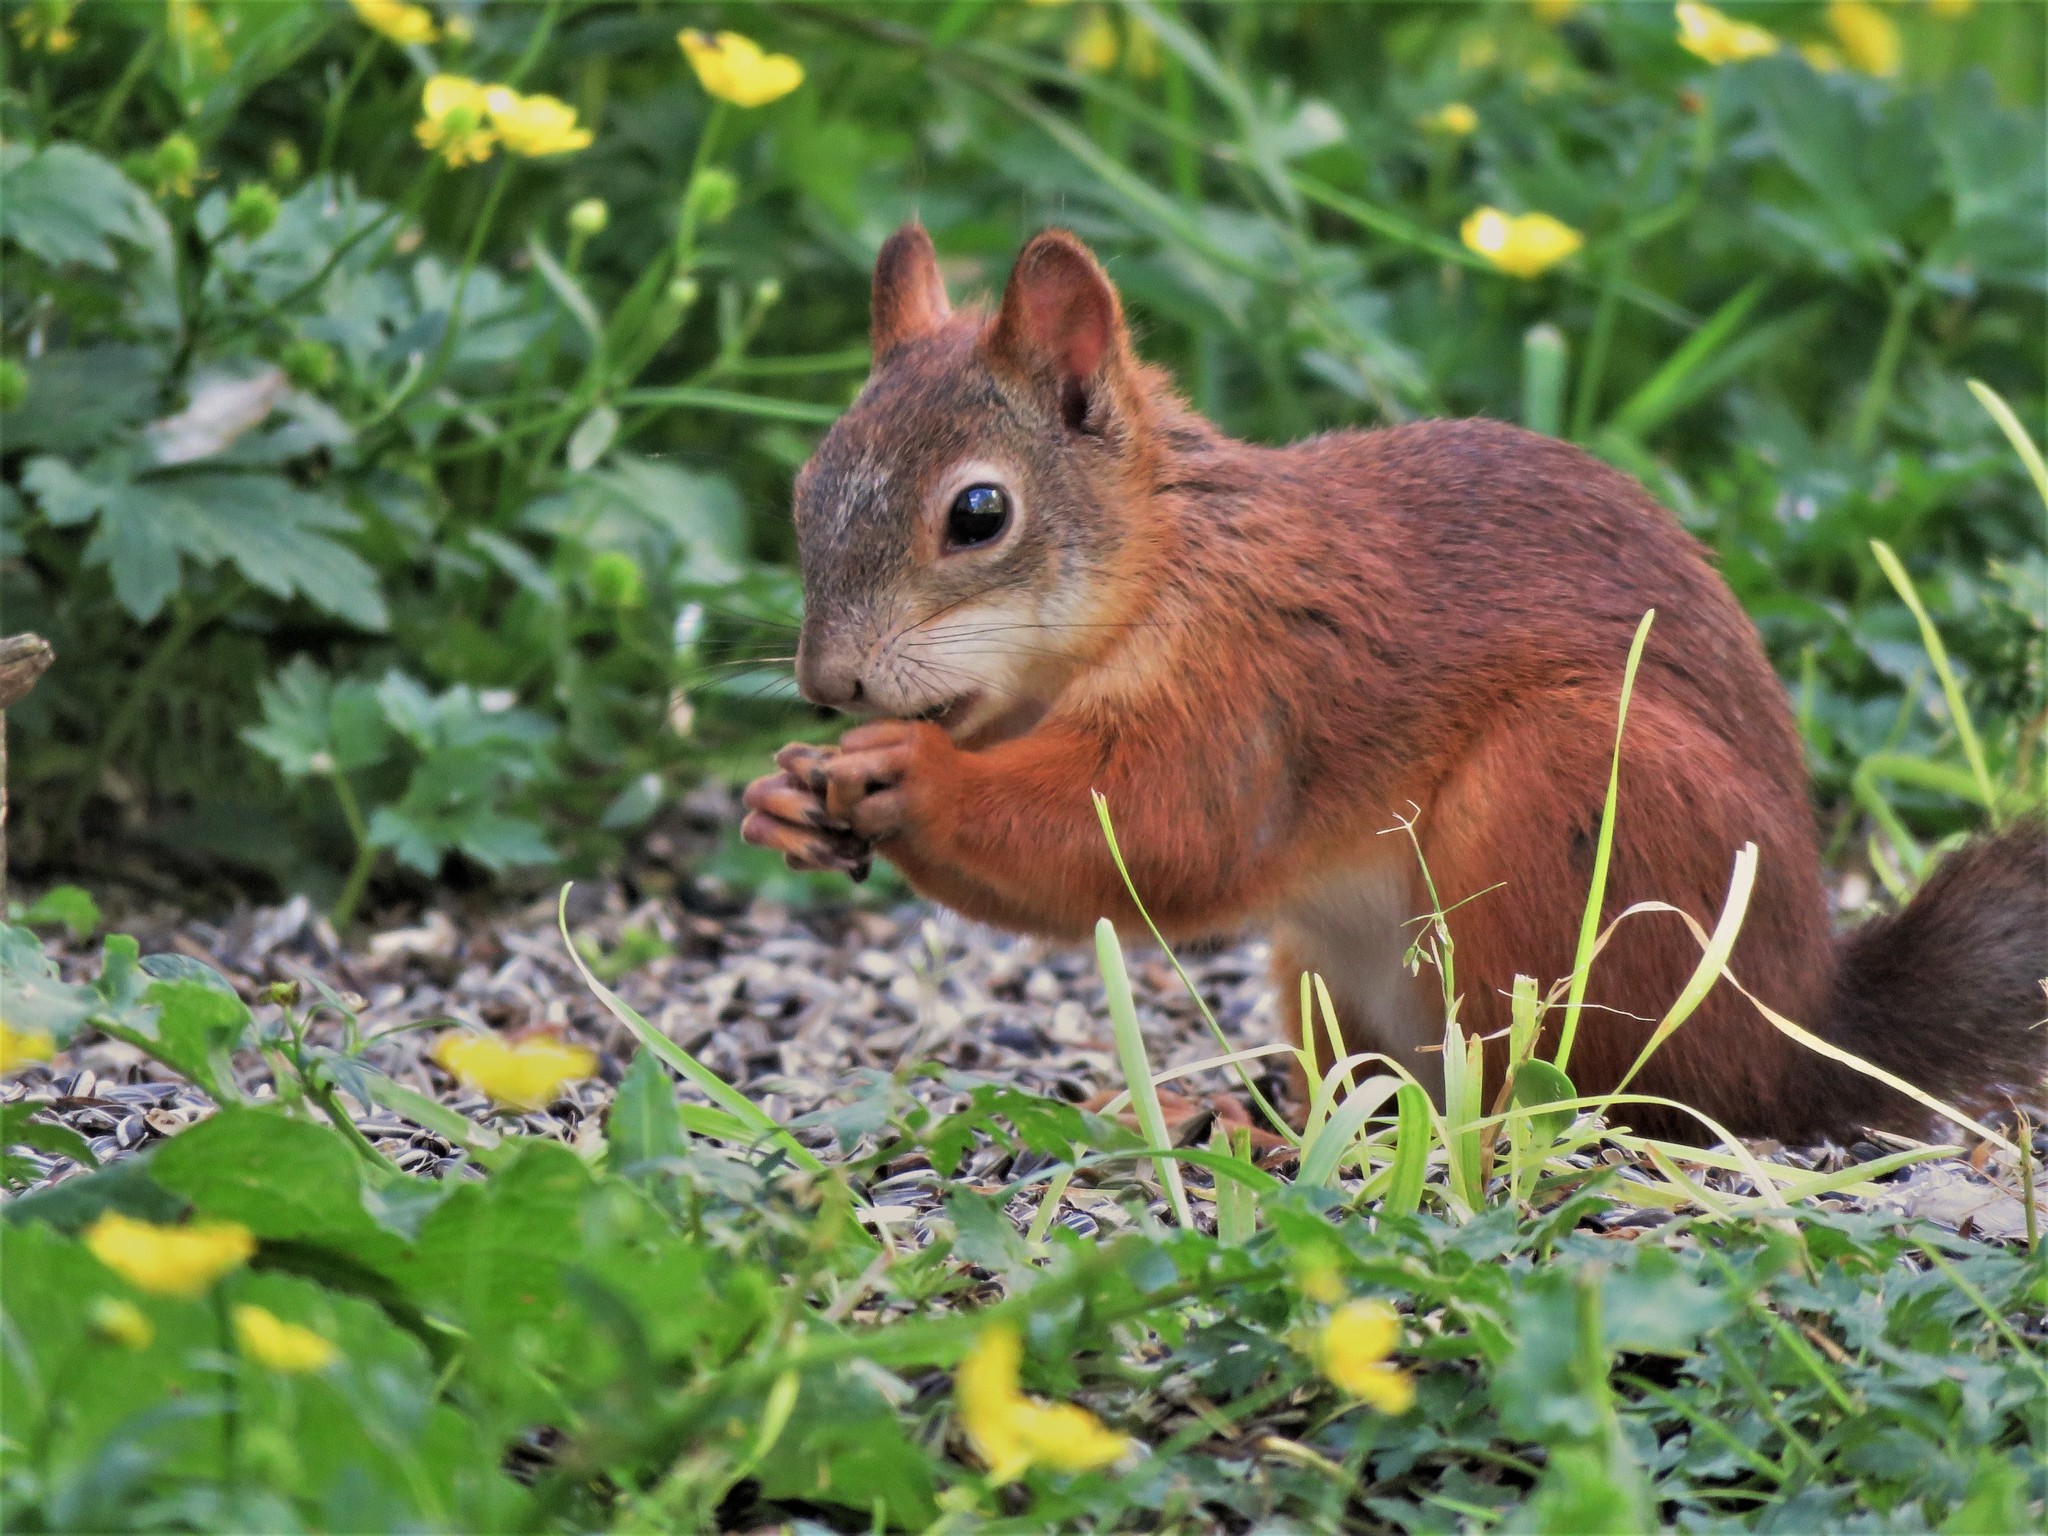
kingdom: Animalia
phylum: Chordata
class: Mammalia
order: Rodentia
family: Sciuridae
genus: Sciurus
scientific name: Sciurus vulgaris
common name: Eurasian red squirrel
